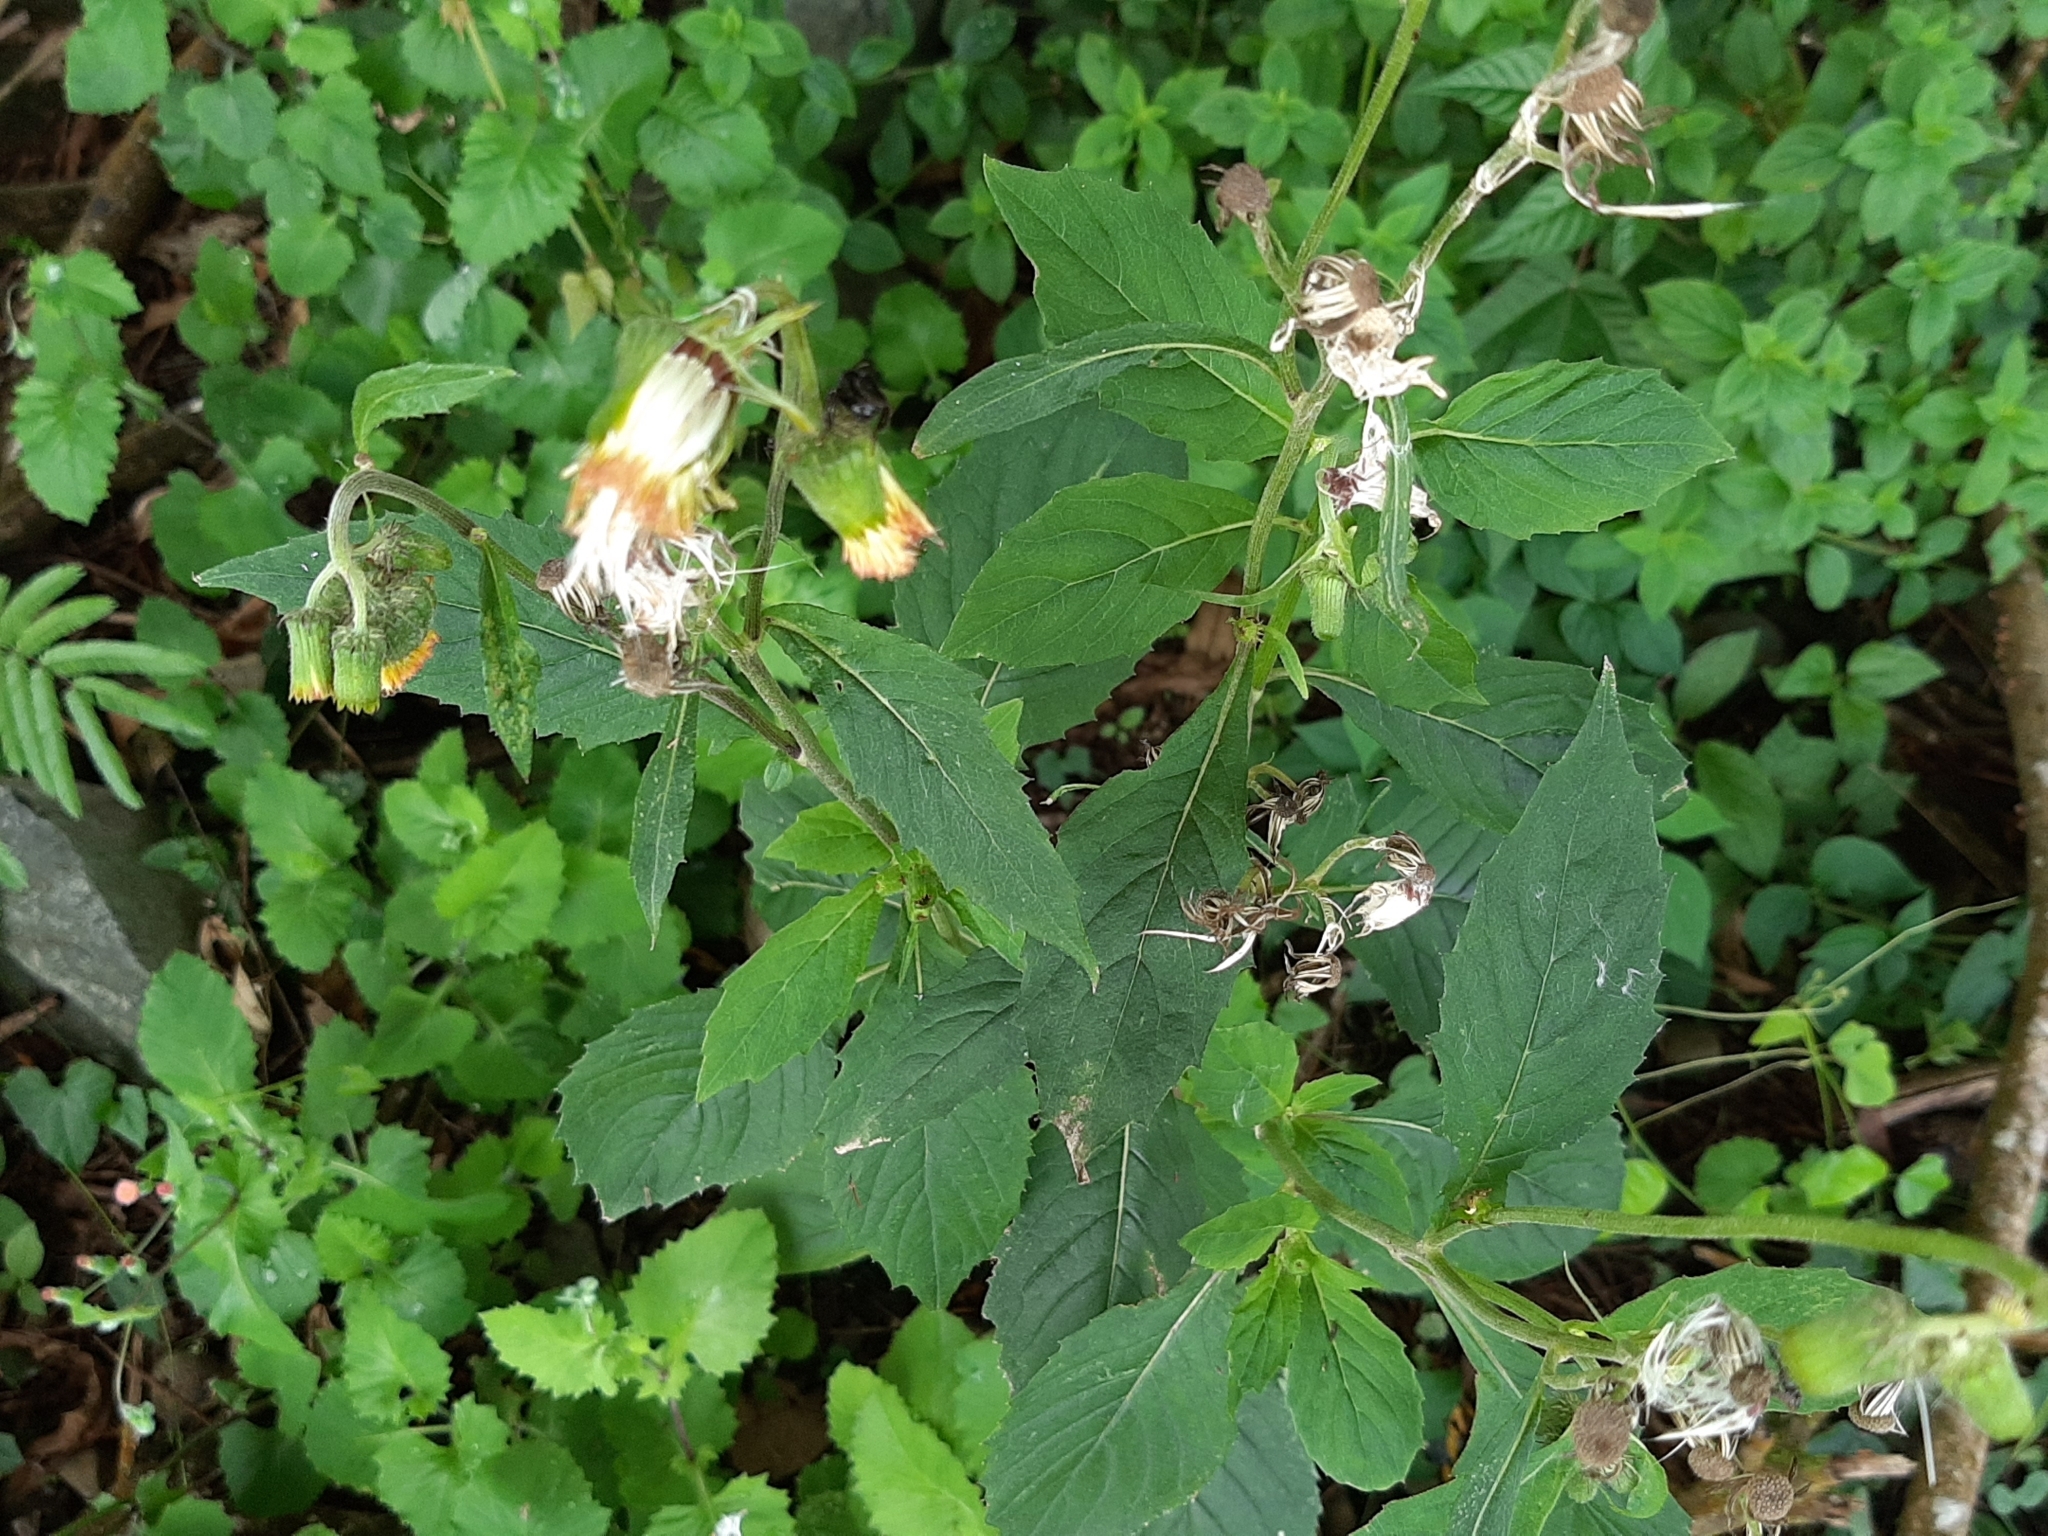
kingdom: Plantae
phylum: Tracheophyta
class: Magnoliopsida
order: Asterales
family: Asteraceae
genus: Crassocephalum
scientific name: Crassocephalum crepidioides
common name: Redflower ragleaf
